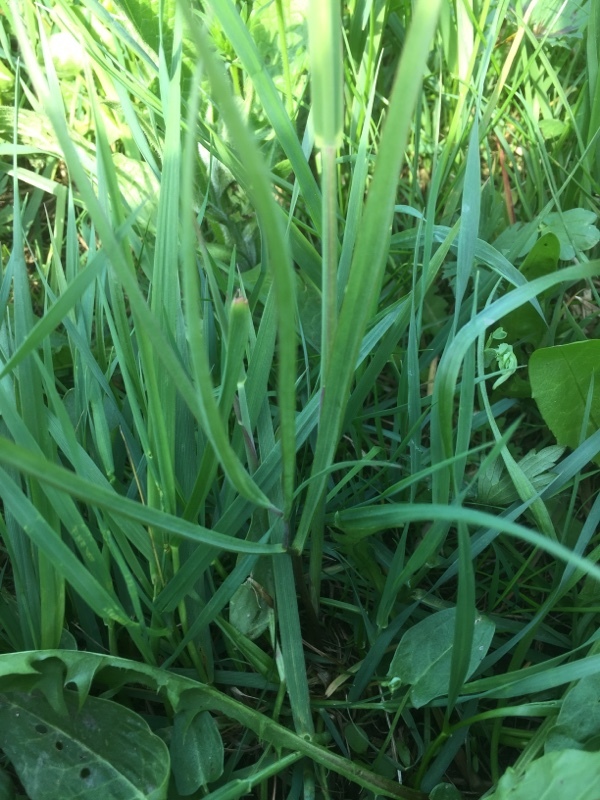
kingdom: Plantae
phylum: Tracheophyta
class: Liliopsida
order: Liliales
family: Liliaceae
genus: Fritillaria
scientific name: Fritillaria meleagris
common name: Fritillary
